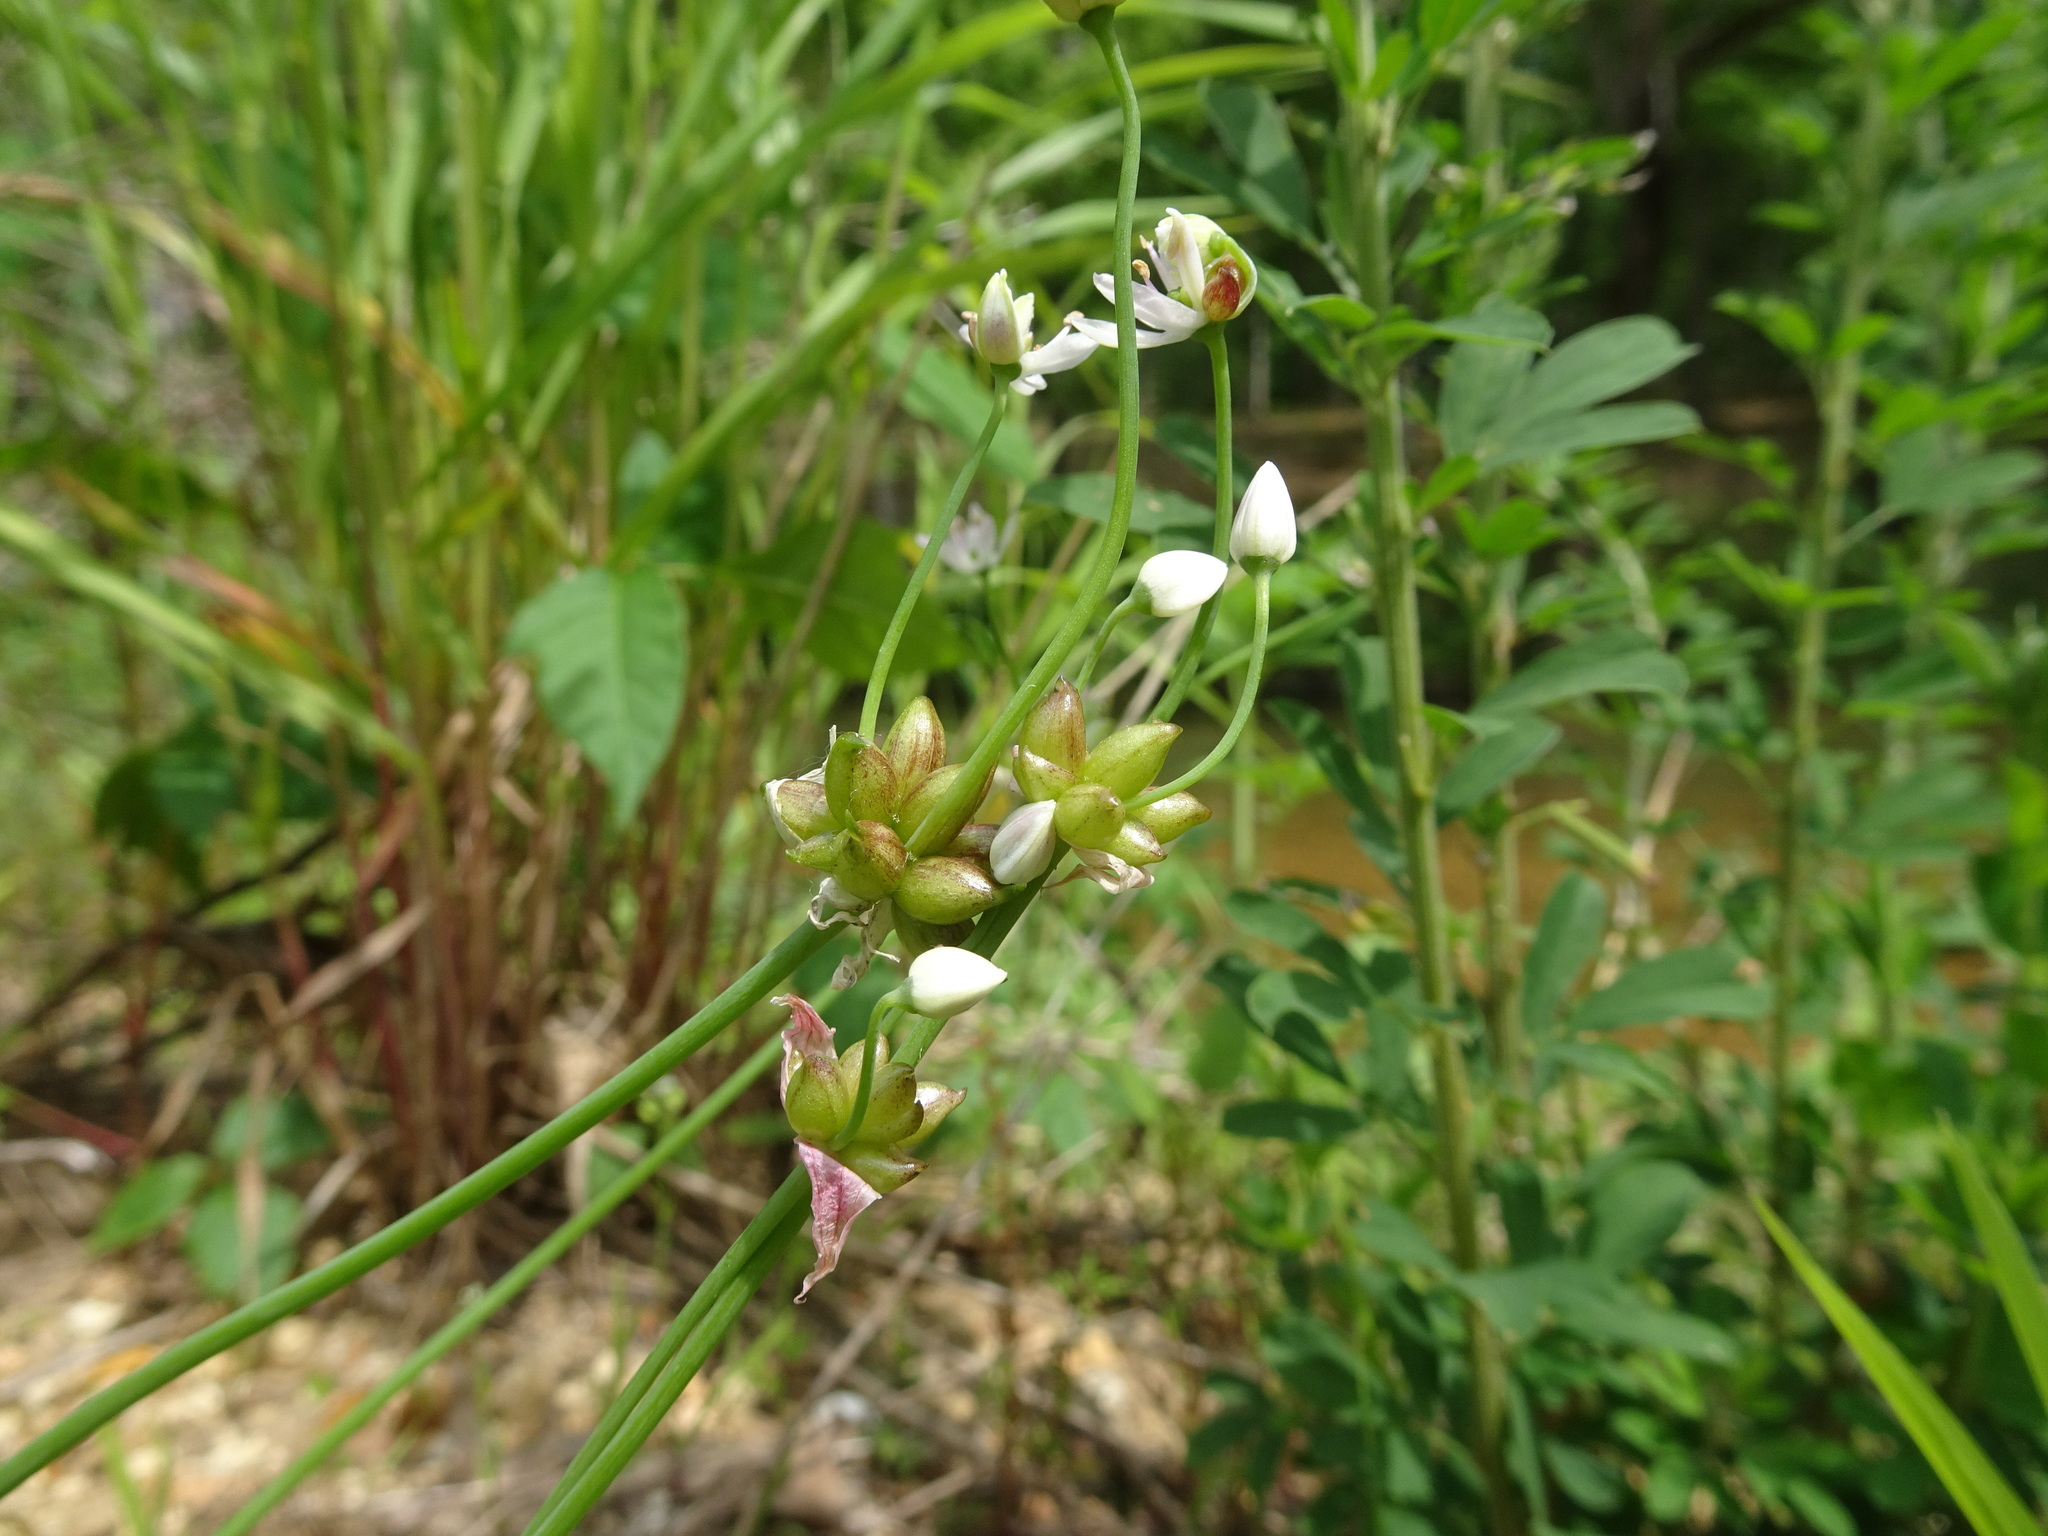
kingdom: Plantae
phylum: Tracheophyta
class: Liliopsida
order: Asparagales
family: Amaryllidaceae
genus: Allium
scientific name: Allium canadense
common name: Meadow garlic
